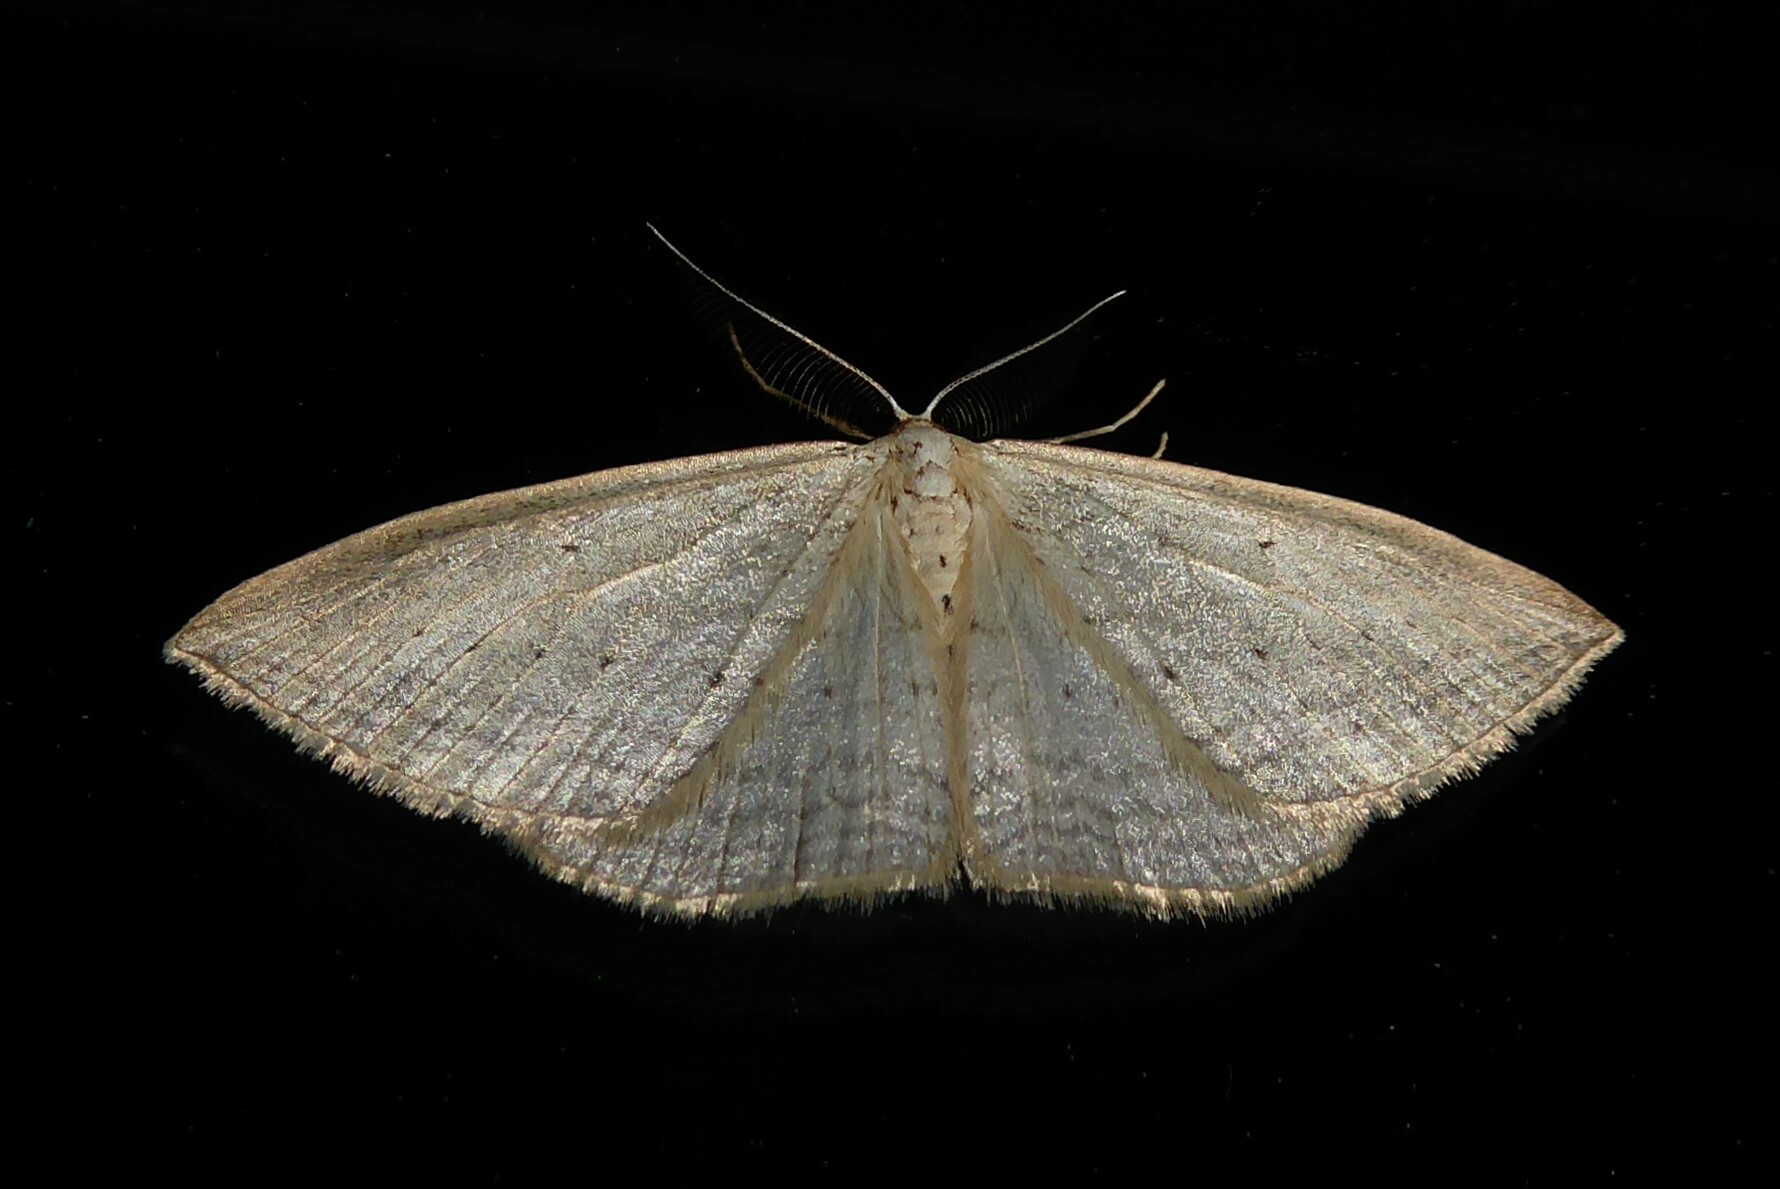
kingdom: Animalia
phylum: Arthropoda
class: Insecta
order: Lepidoptera
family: Geometridae
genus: Orthoclydon
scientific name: Orthoclydon praefectata
